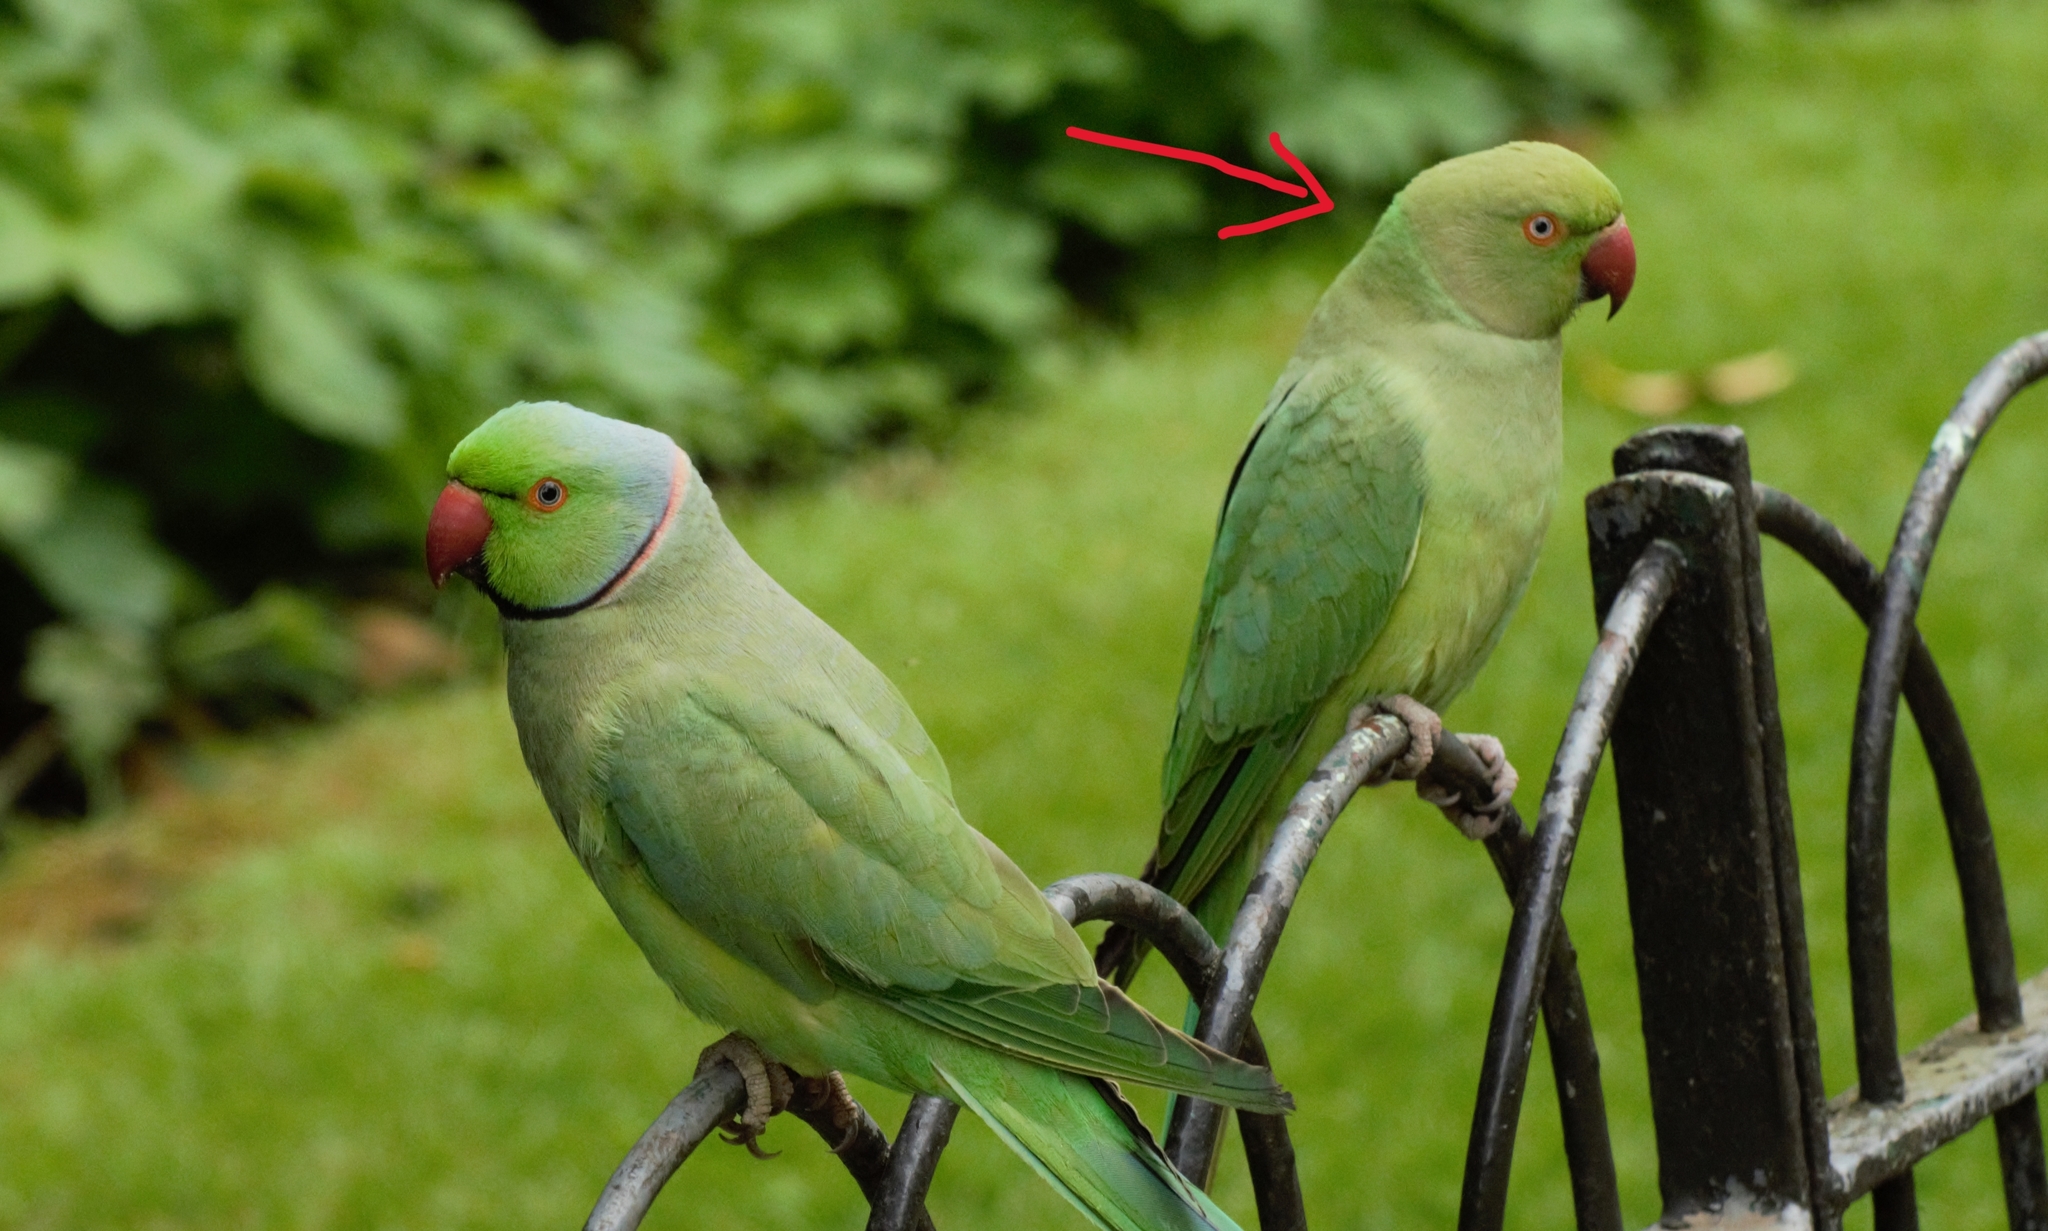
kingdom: Animalia
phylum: Chordata
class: Aves
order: Psittaciformes
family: Psittacidae
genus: Psittacula
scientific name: Psittacula krameri
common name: Rose-ringed parakeet
